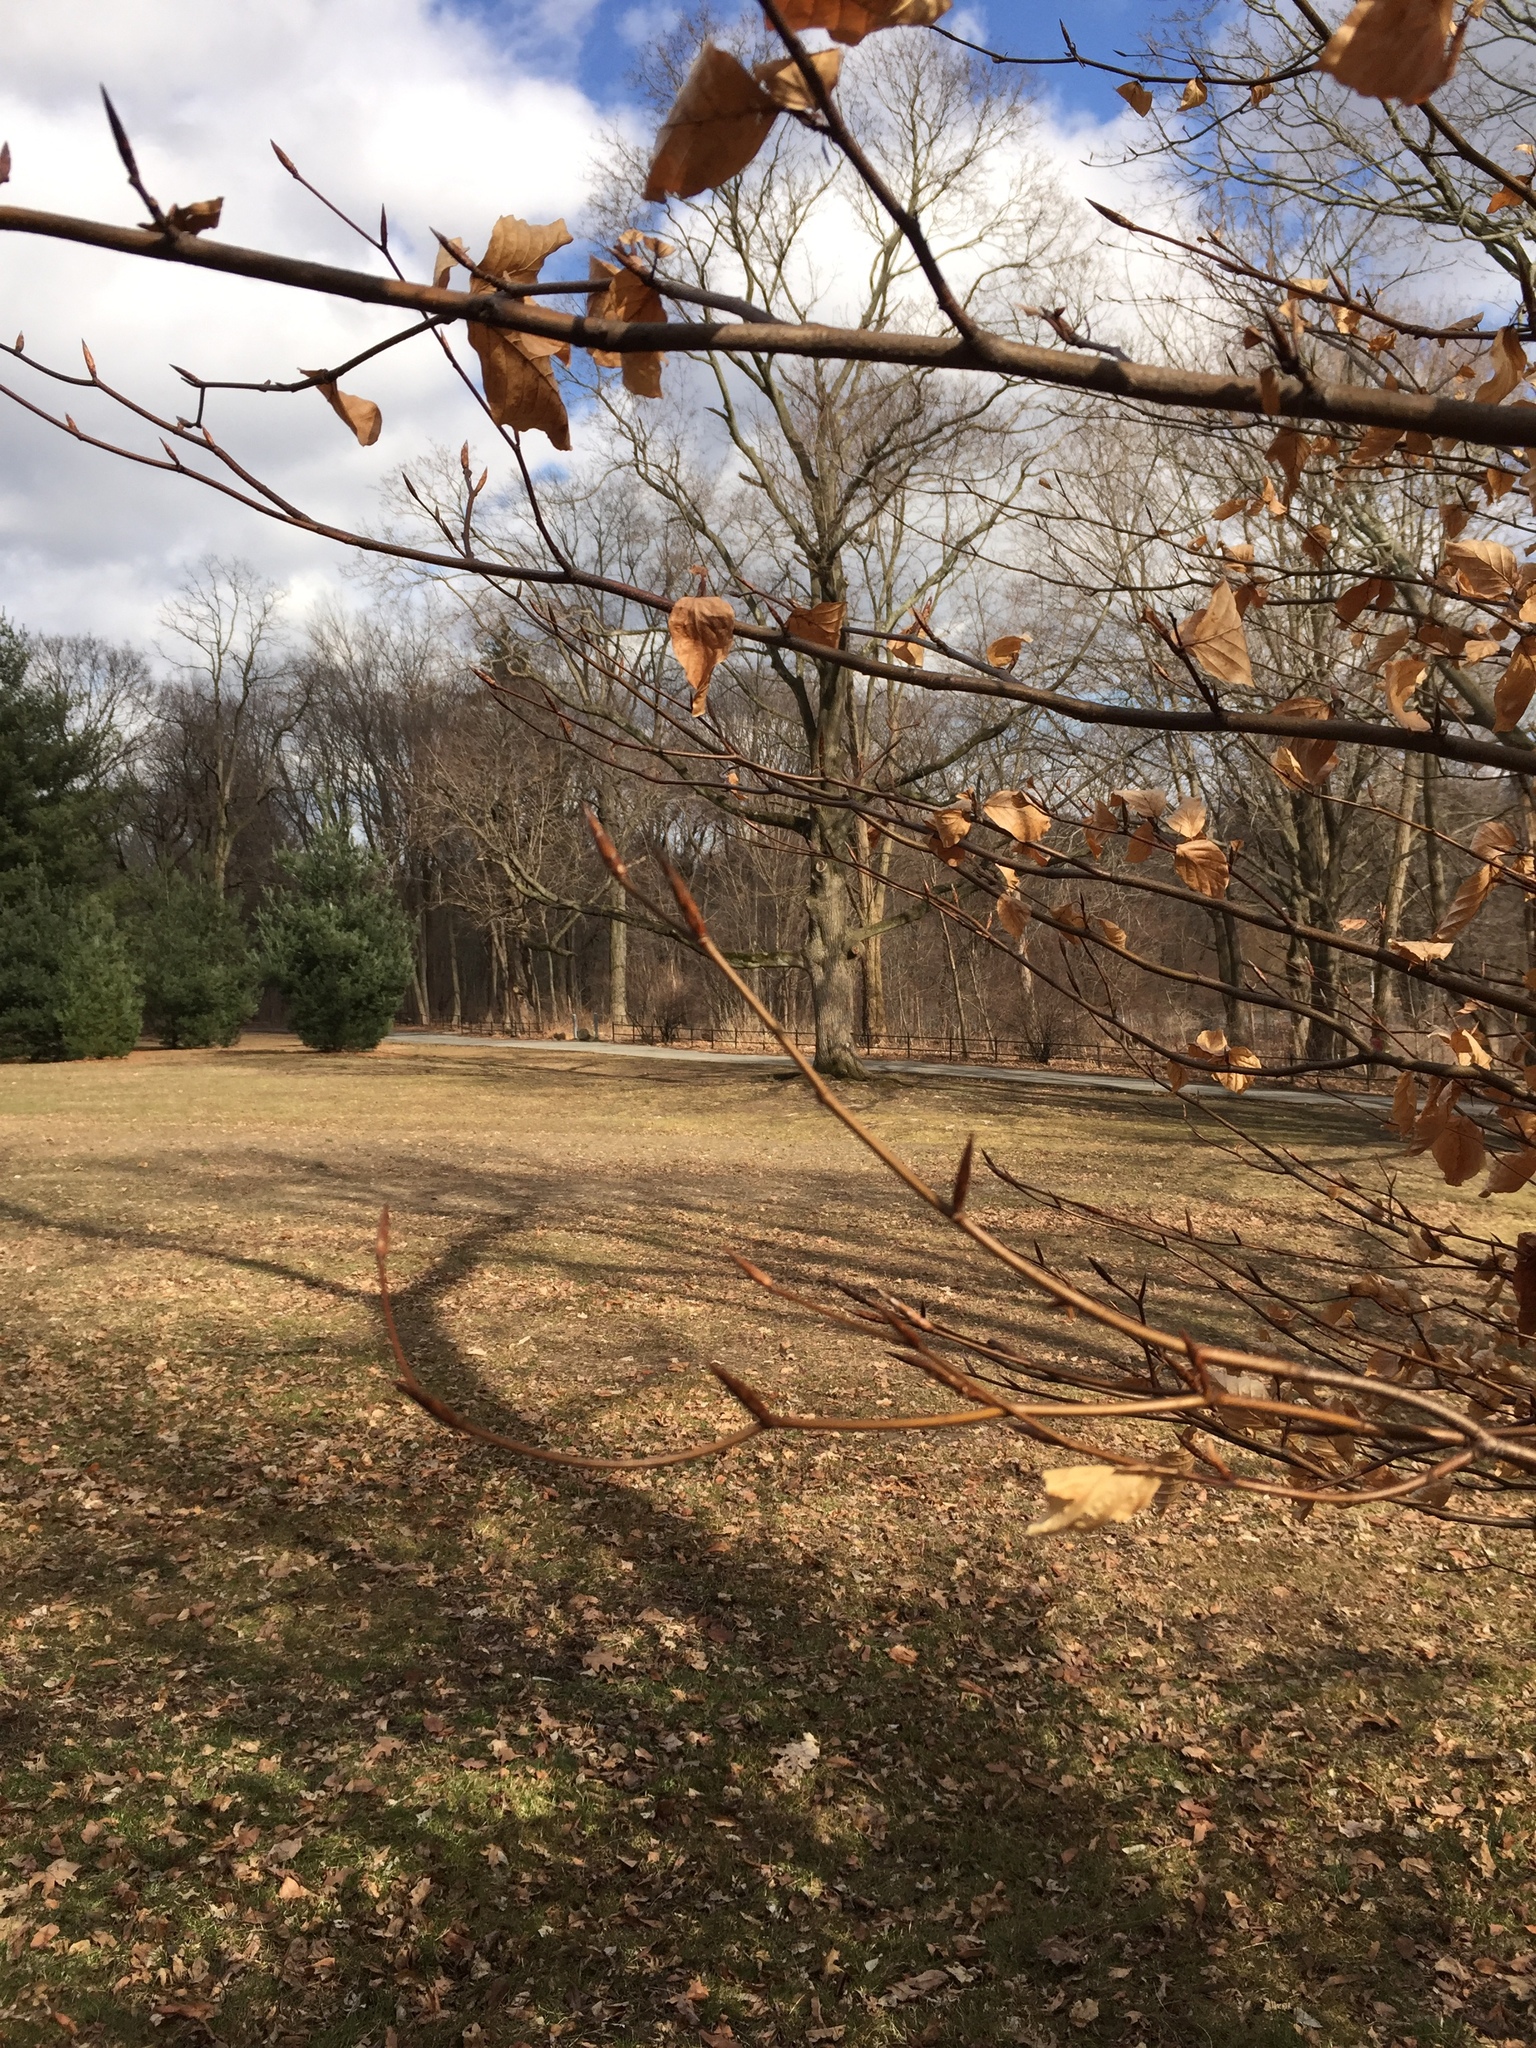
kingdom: Plantae
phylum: Tracheophyta
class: Magnoliopsida
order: Fagales
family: Fagaceae
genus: Fagus
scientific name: Fagus grandifolia
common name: American beech
